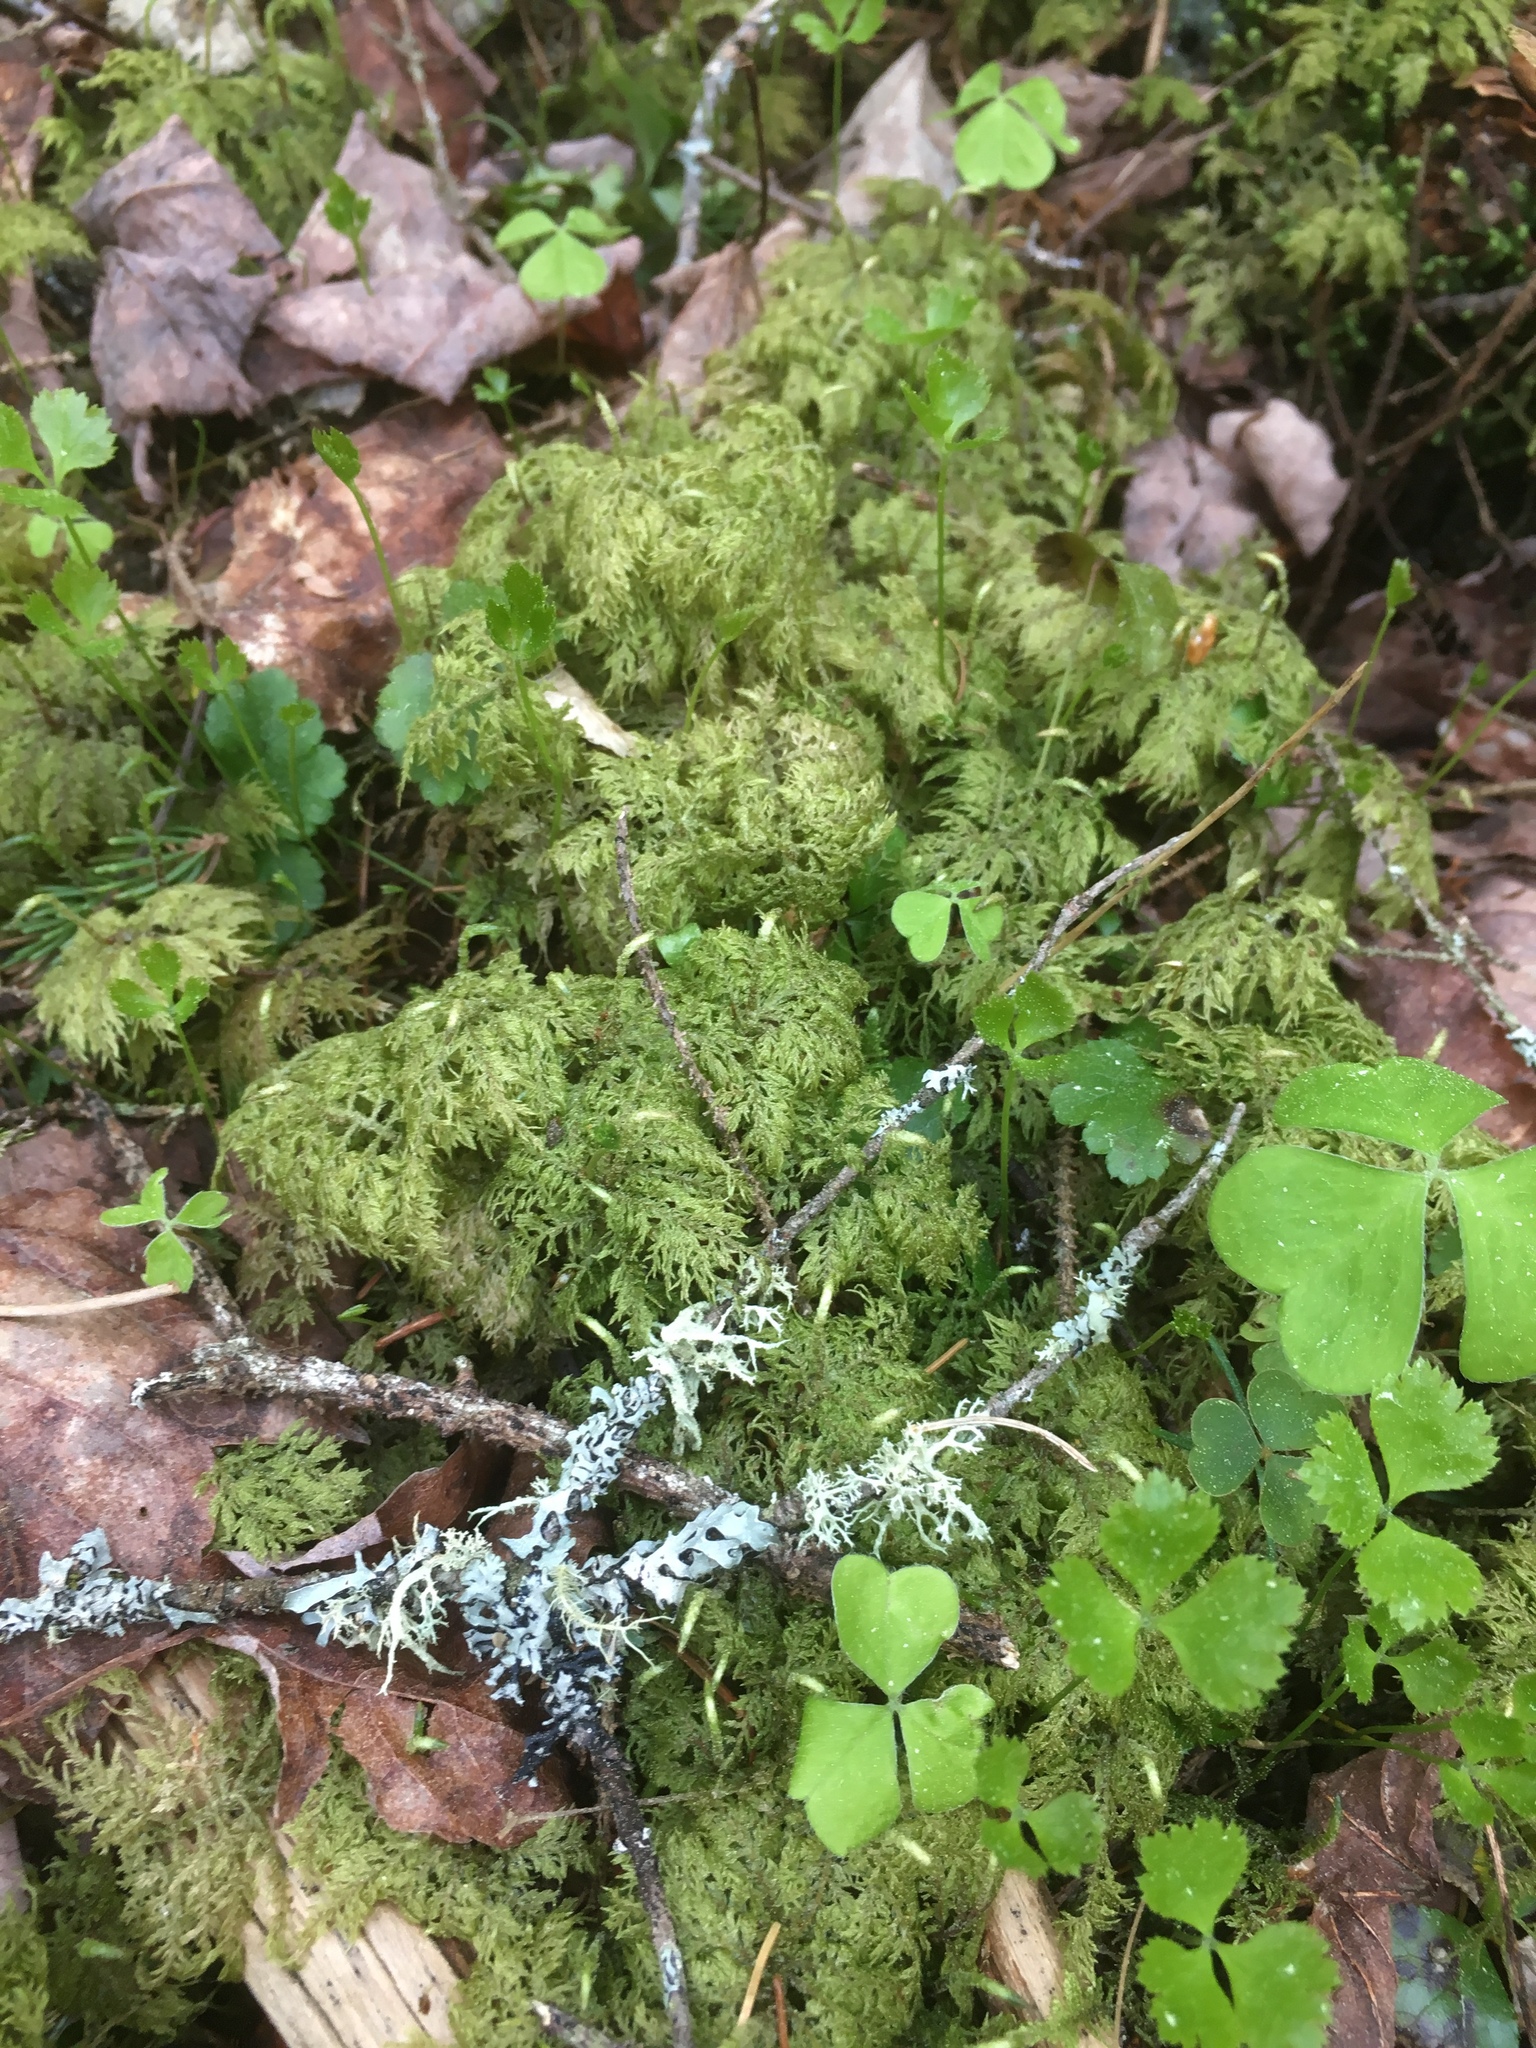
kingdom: Plantae
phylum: Bryophyta
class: Bryopsida
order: Hypnales
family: Hylocomiaceae
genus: Hylocomium
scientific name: Hylocomium splendens
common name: Stairstep moss
